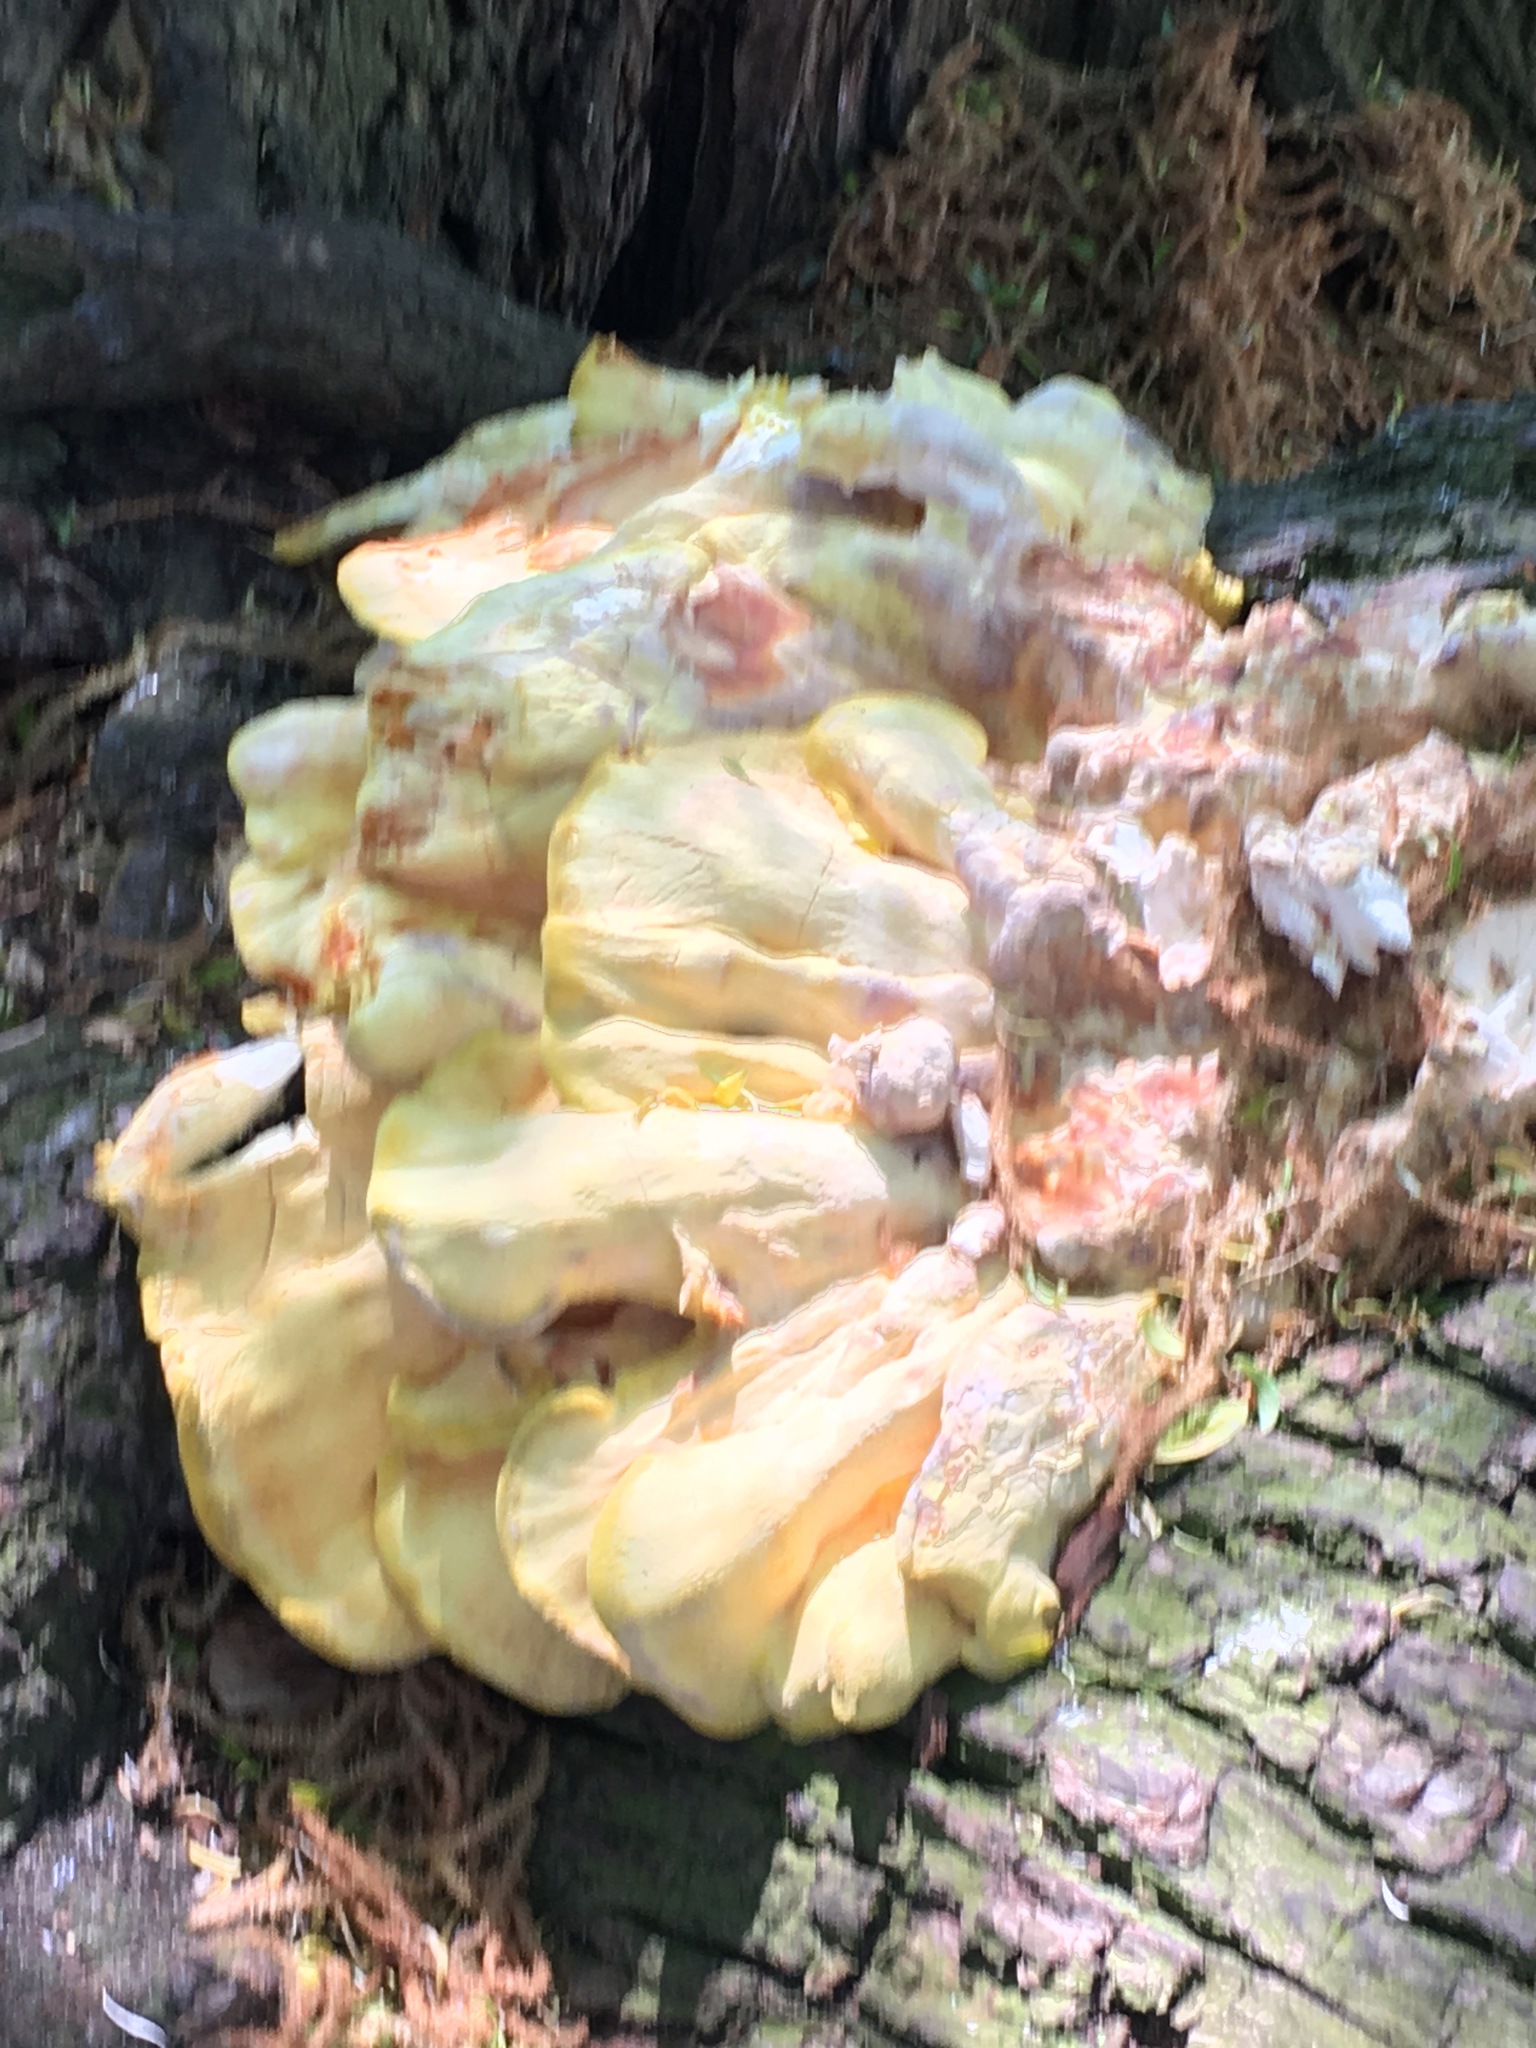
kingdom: Fungi
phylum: Basidiomycota
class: Agaricomycetes
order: Polyporales
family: Laetiporaceae
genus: Laetiporus
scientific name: Laetiporus sulphureus
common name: Chicken of the woods
